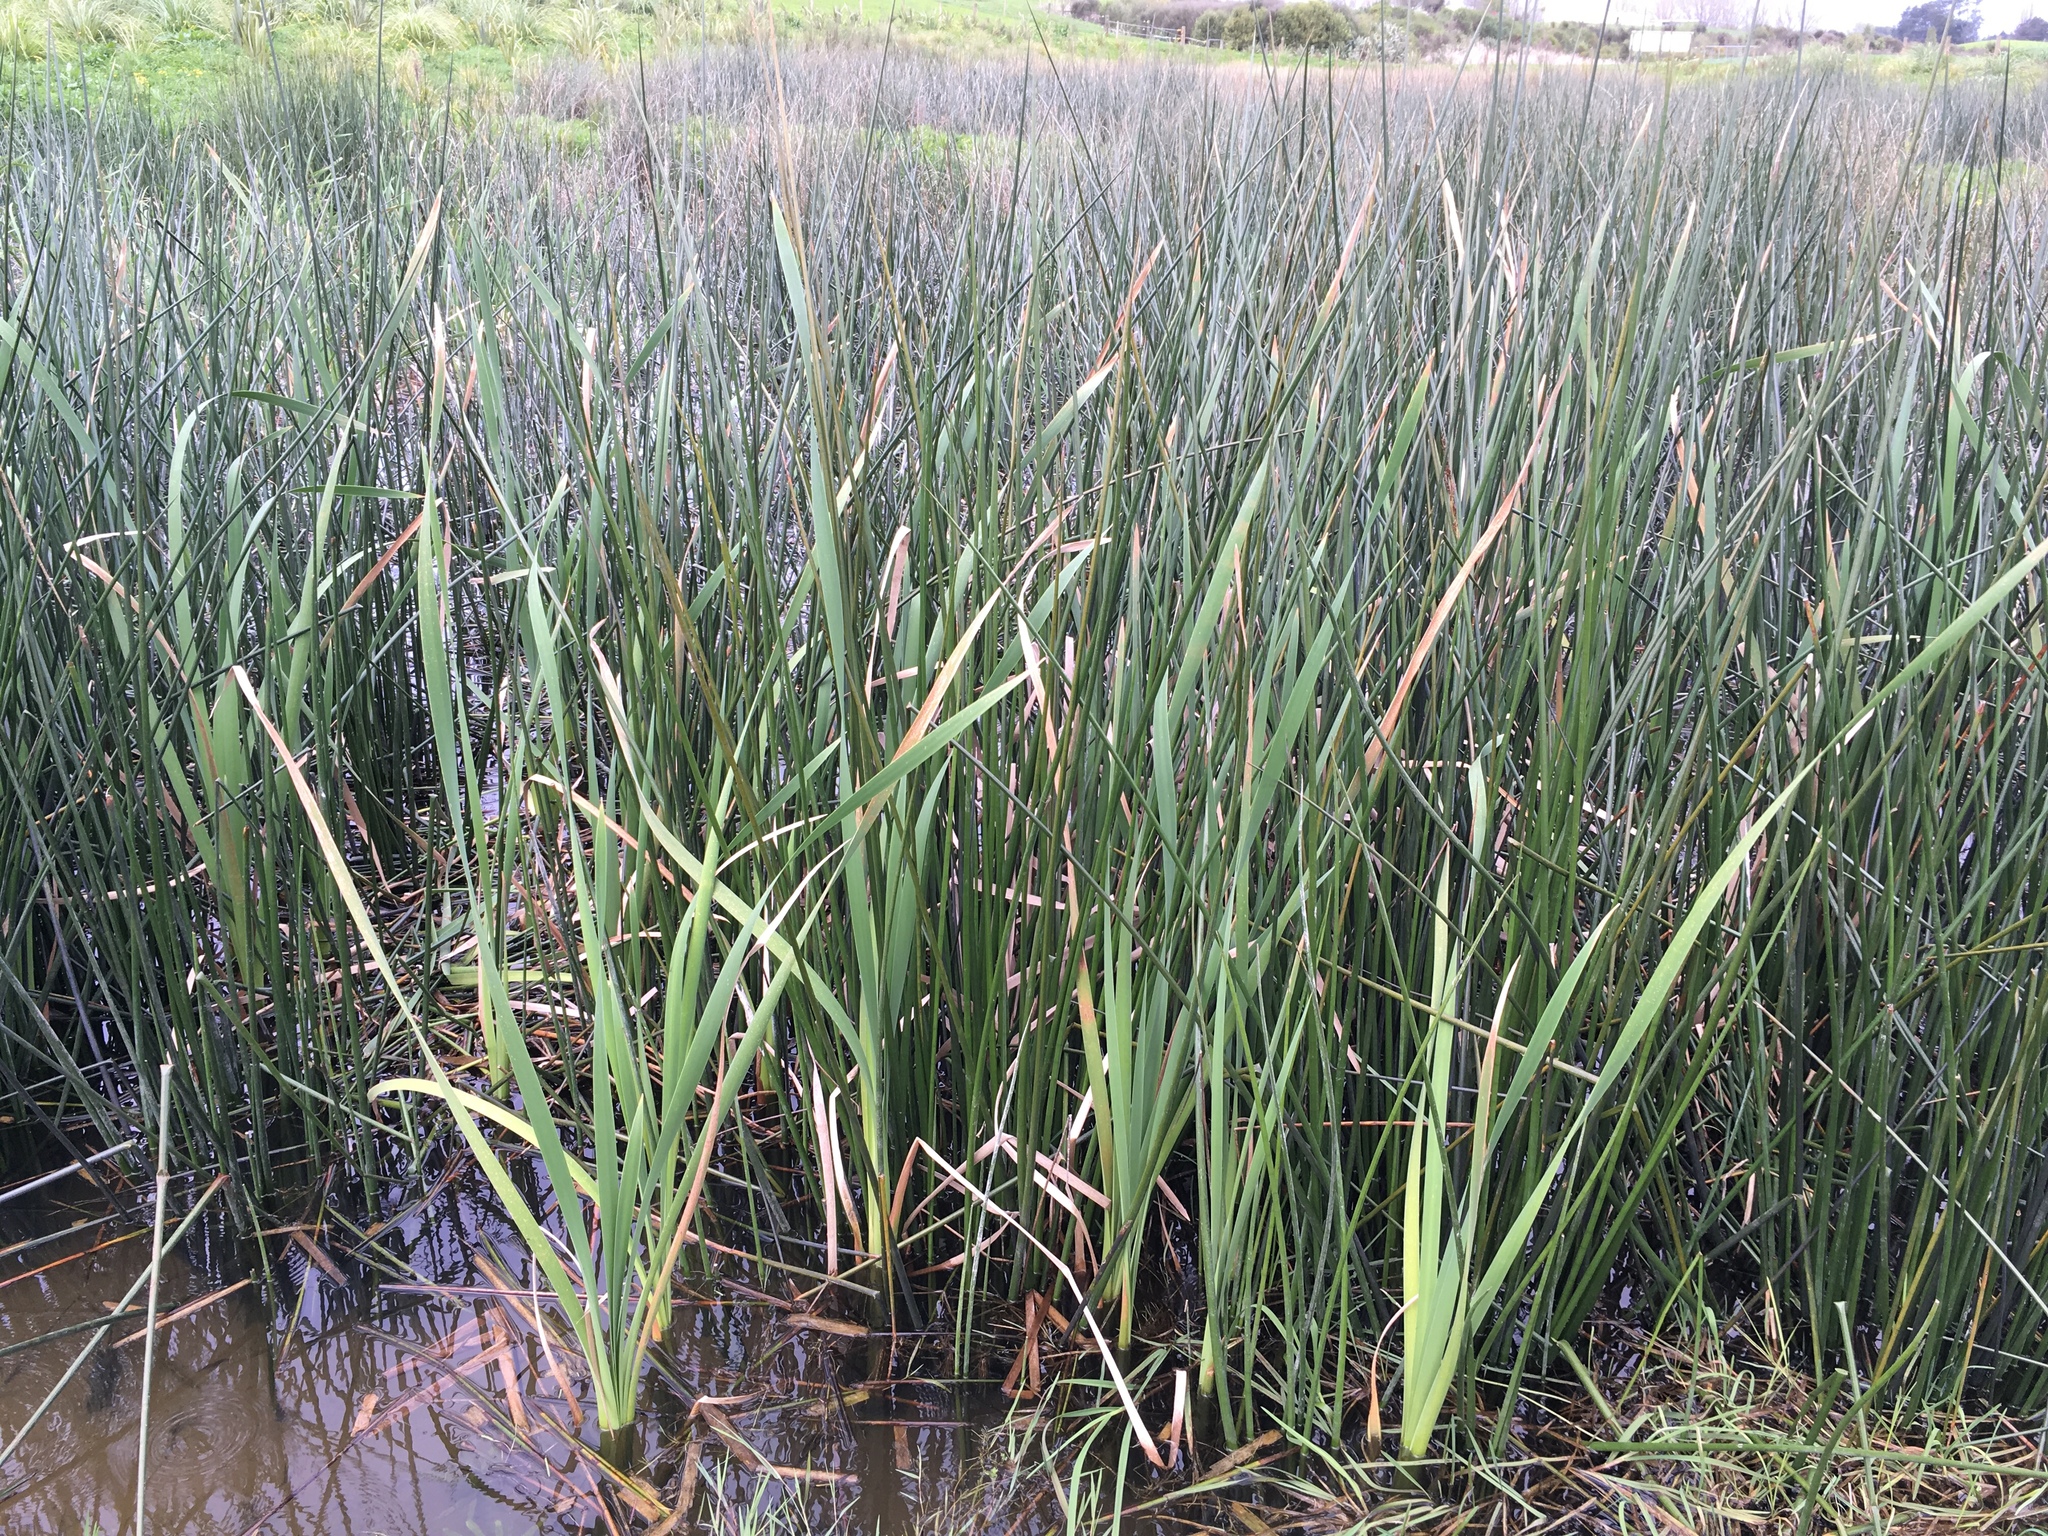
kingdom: Plantae
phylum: Tracheophyta
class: Liliopsida
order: Poales
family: Typhaceae
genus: Typha
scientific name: Typha orientalis
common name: Bullrush
